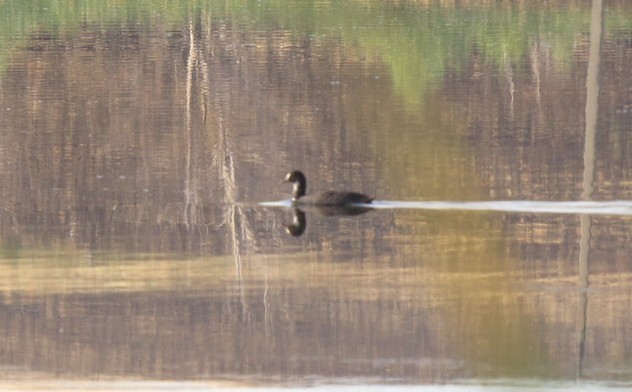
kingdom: Animalia
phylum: Chordata
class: Aves
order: Gruiformes
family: Rallidae
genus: Fulica
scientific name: Fulica atra
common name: Eurasian coot
